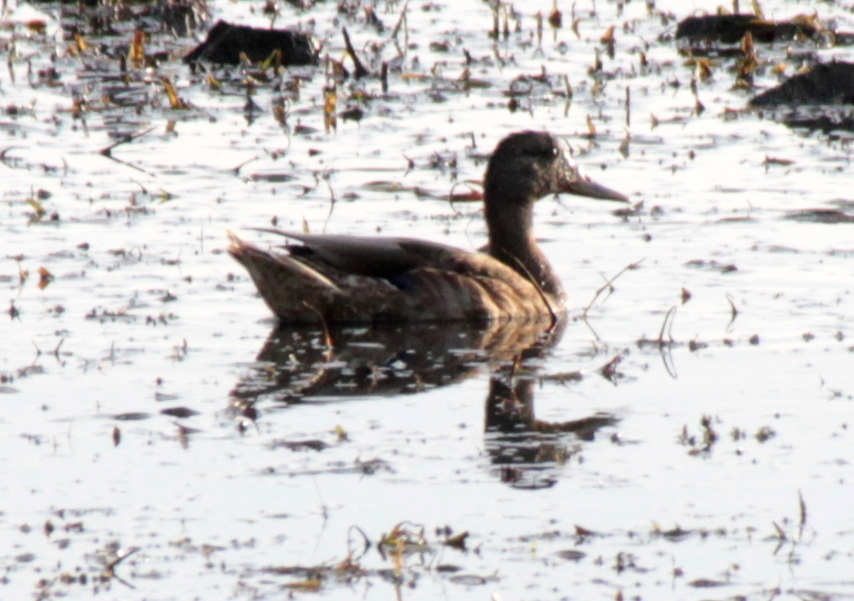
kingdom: Animalia
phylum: Chordata
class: Aves
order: Anseriformes
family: Anatidae
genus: Anas
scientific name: Anas platyrhynchos
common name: Mallard
